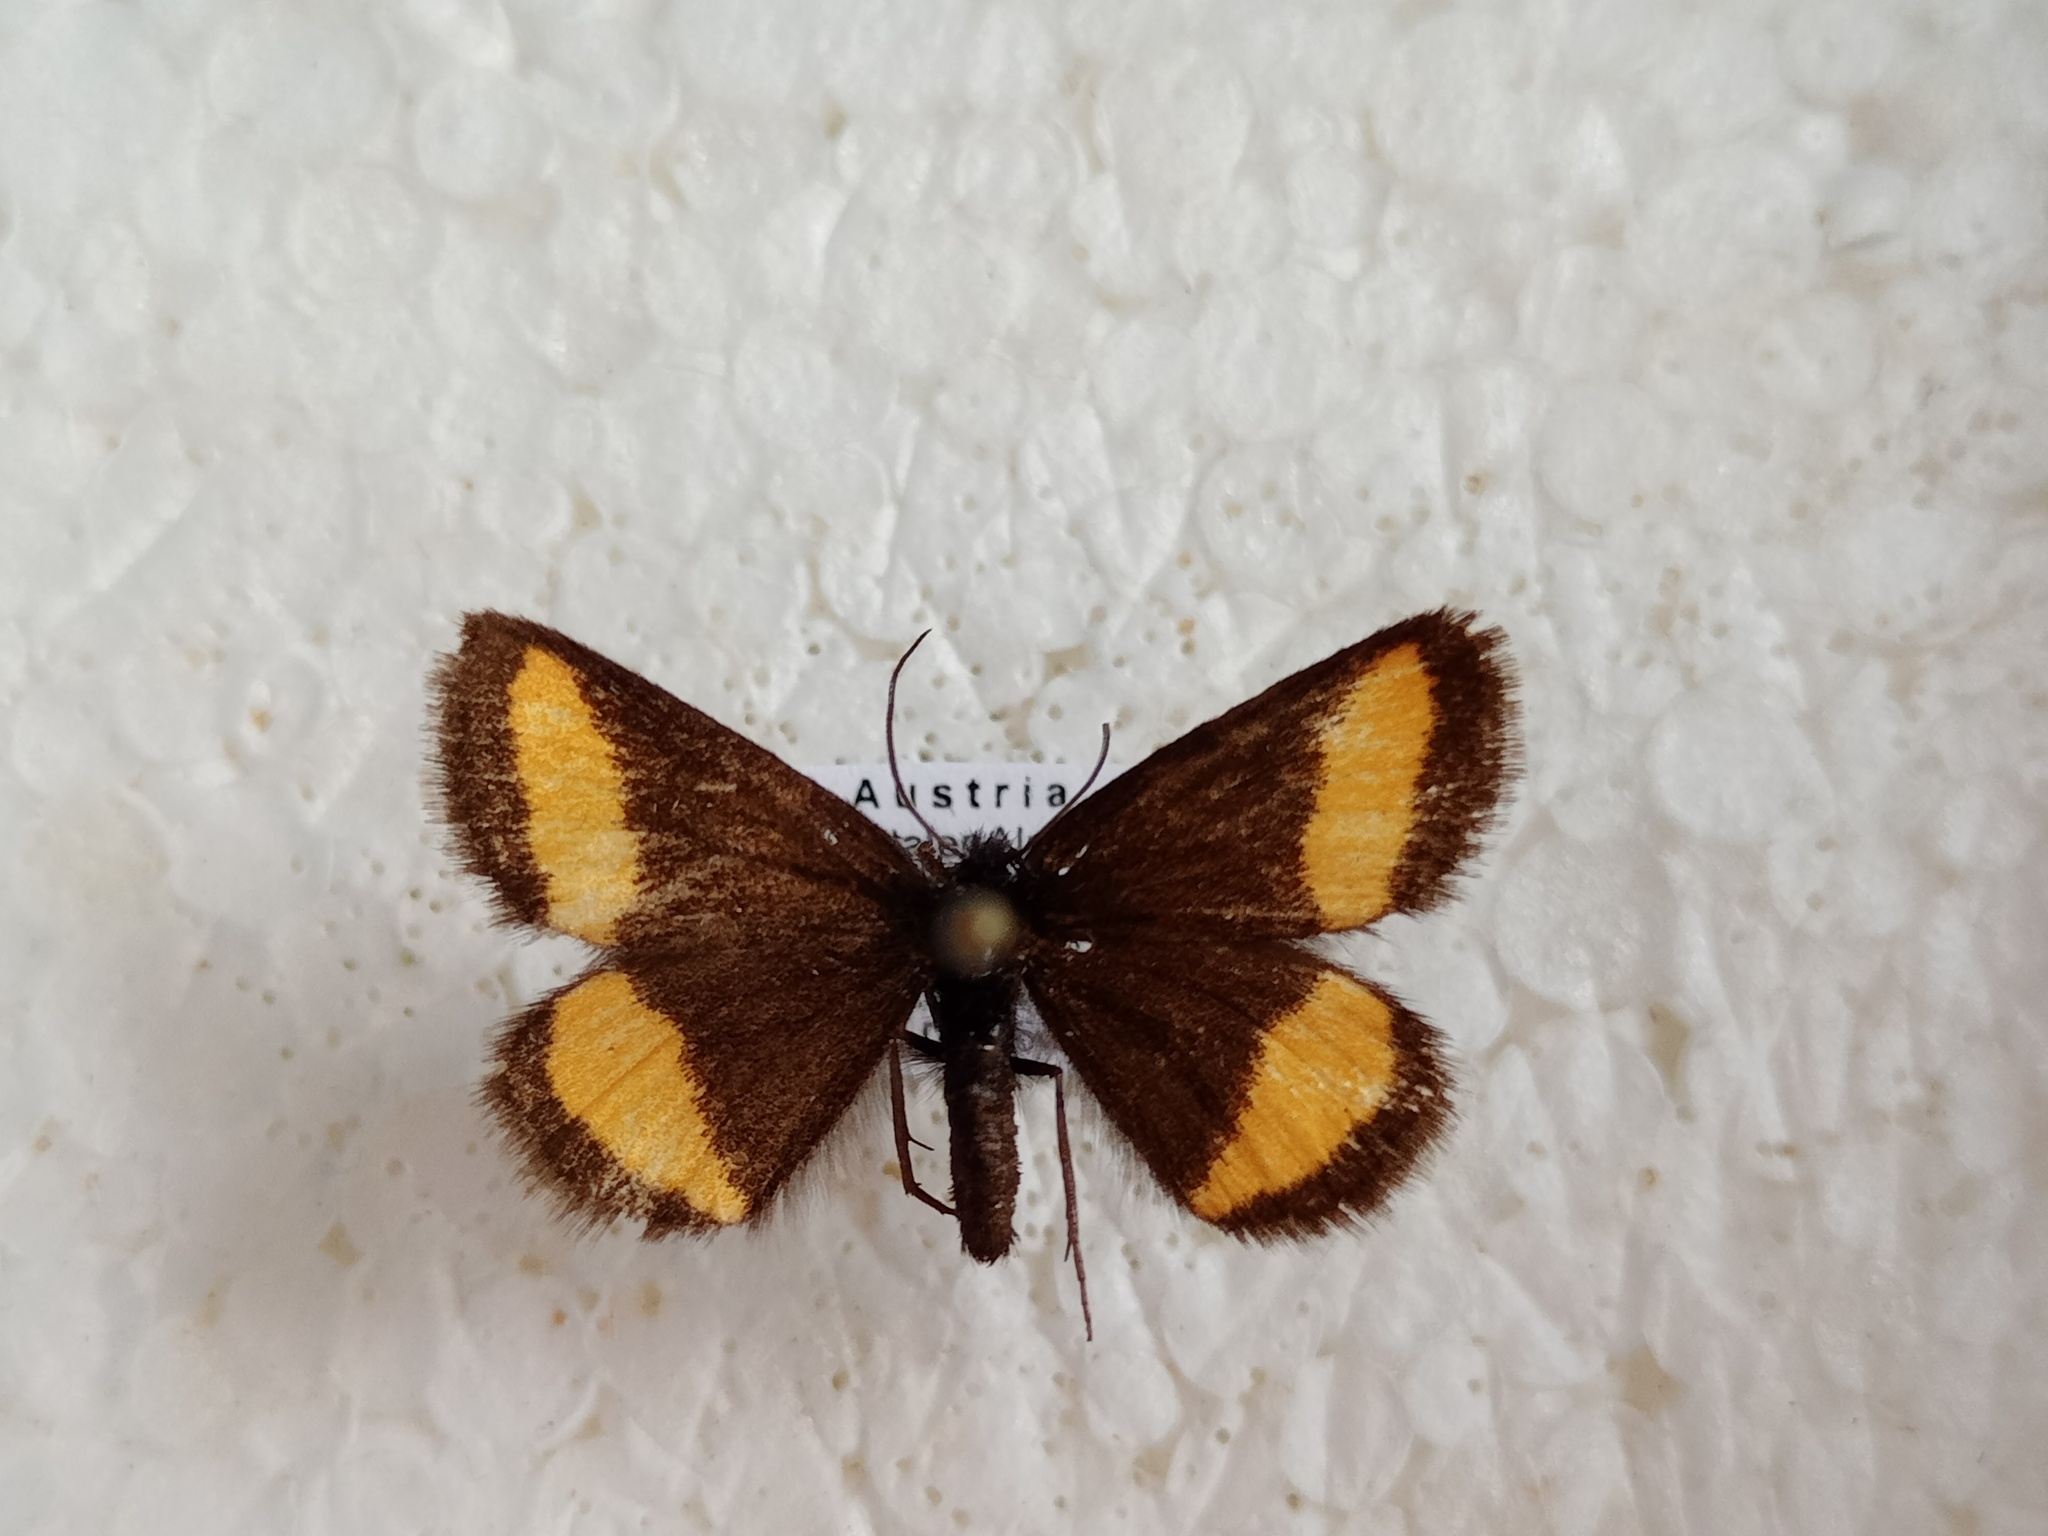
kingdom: Animalia
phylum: Arthropoda
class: Insecta
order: Lepidoptera
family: Geometridae
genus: Psodos
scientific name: Psodos quadrifaria
